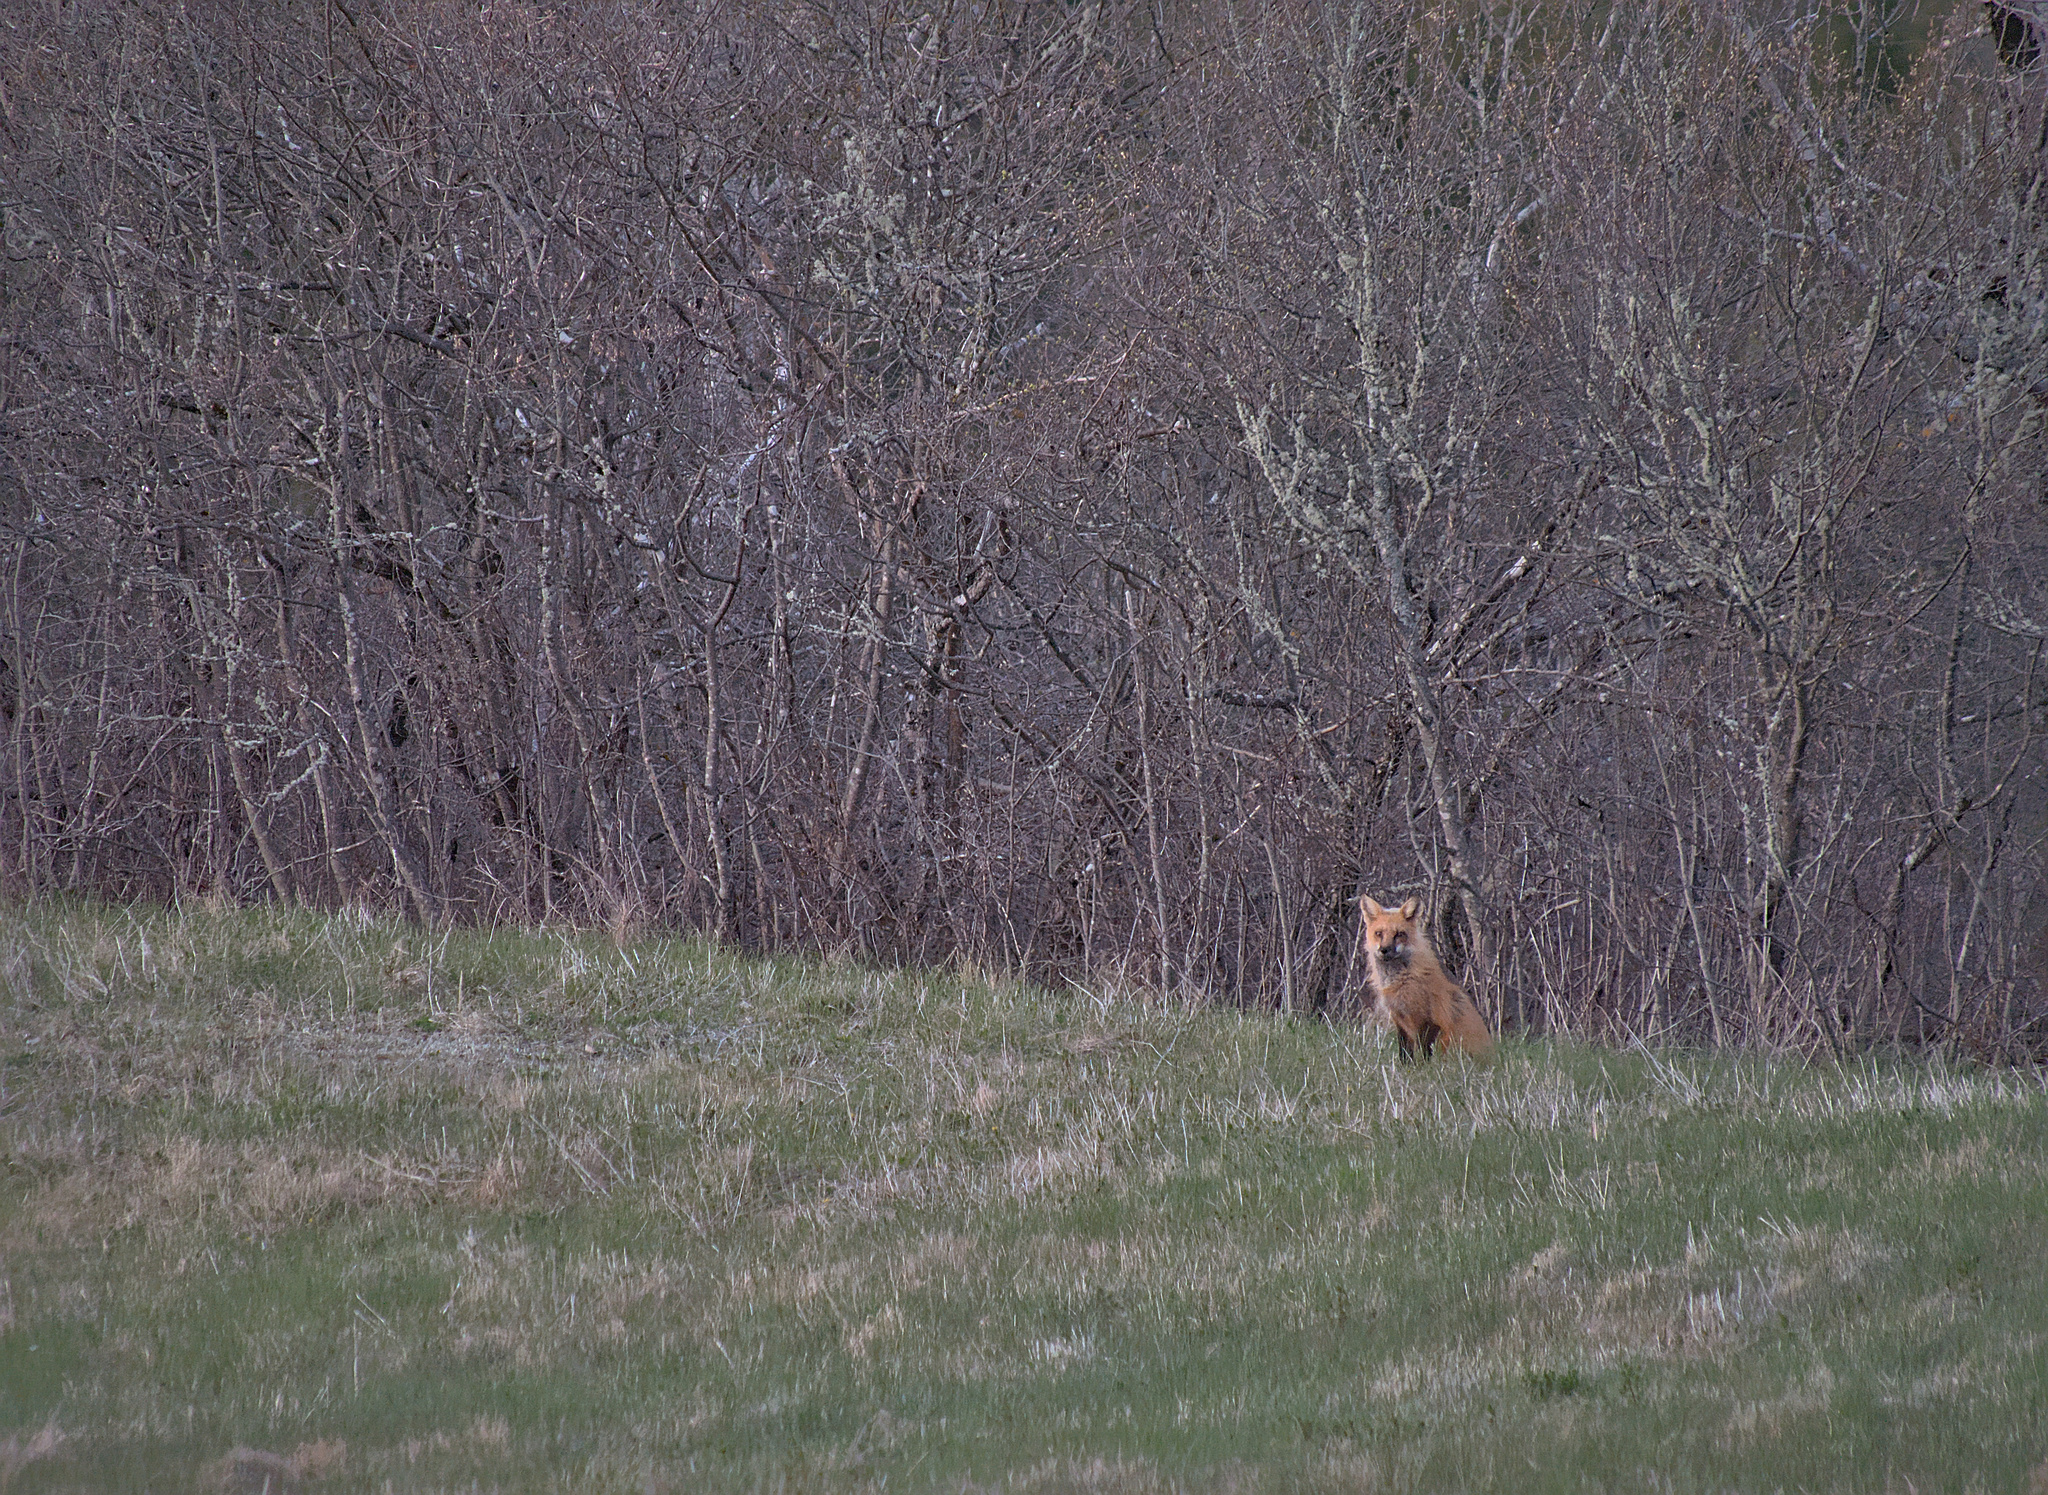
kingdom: Animalia
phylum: Chordata
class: Mammalia
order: Carnivora
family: Canidae
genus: Vulpes
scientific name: Vulpes vulpes
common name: Red fox
